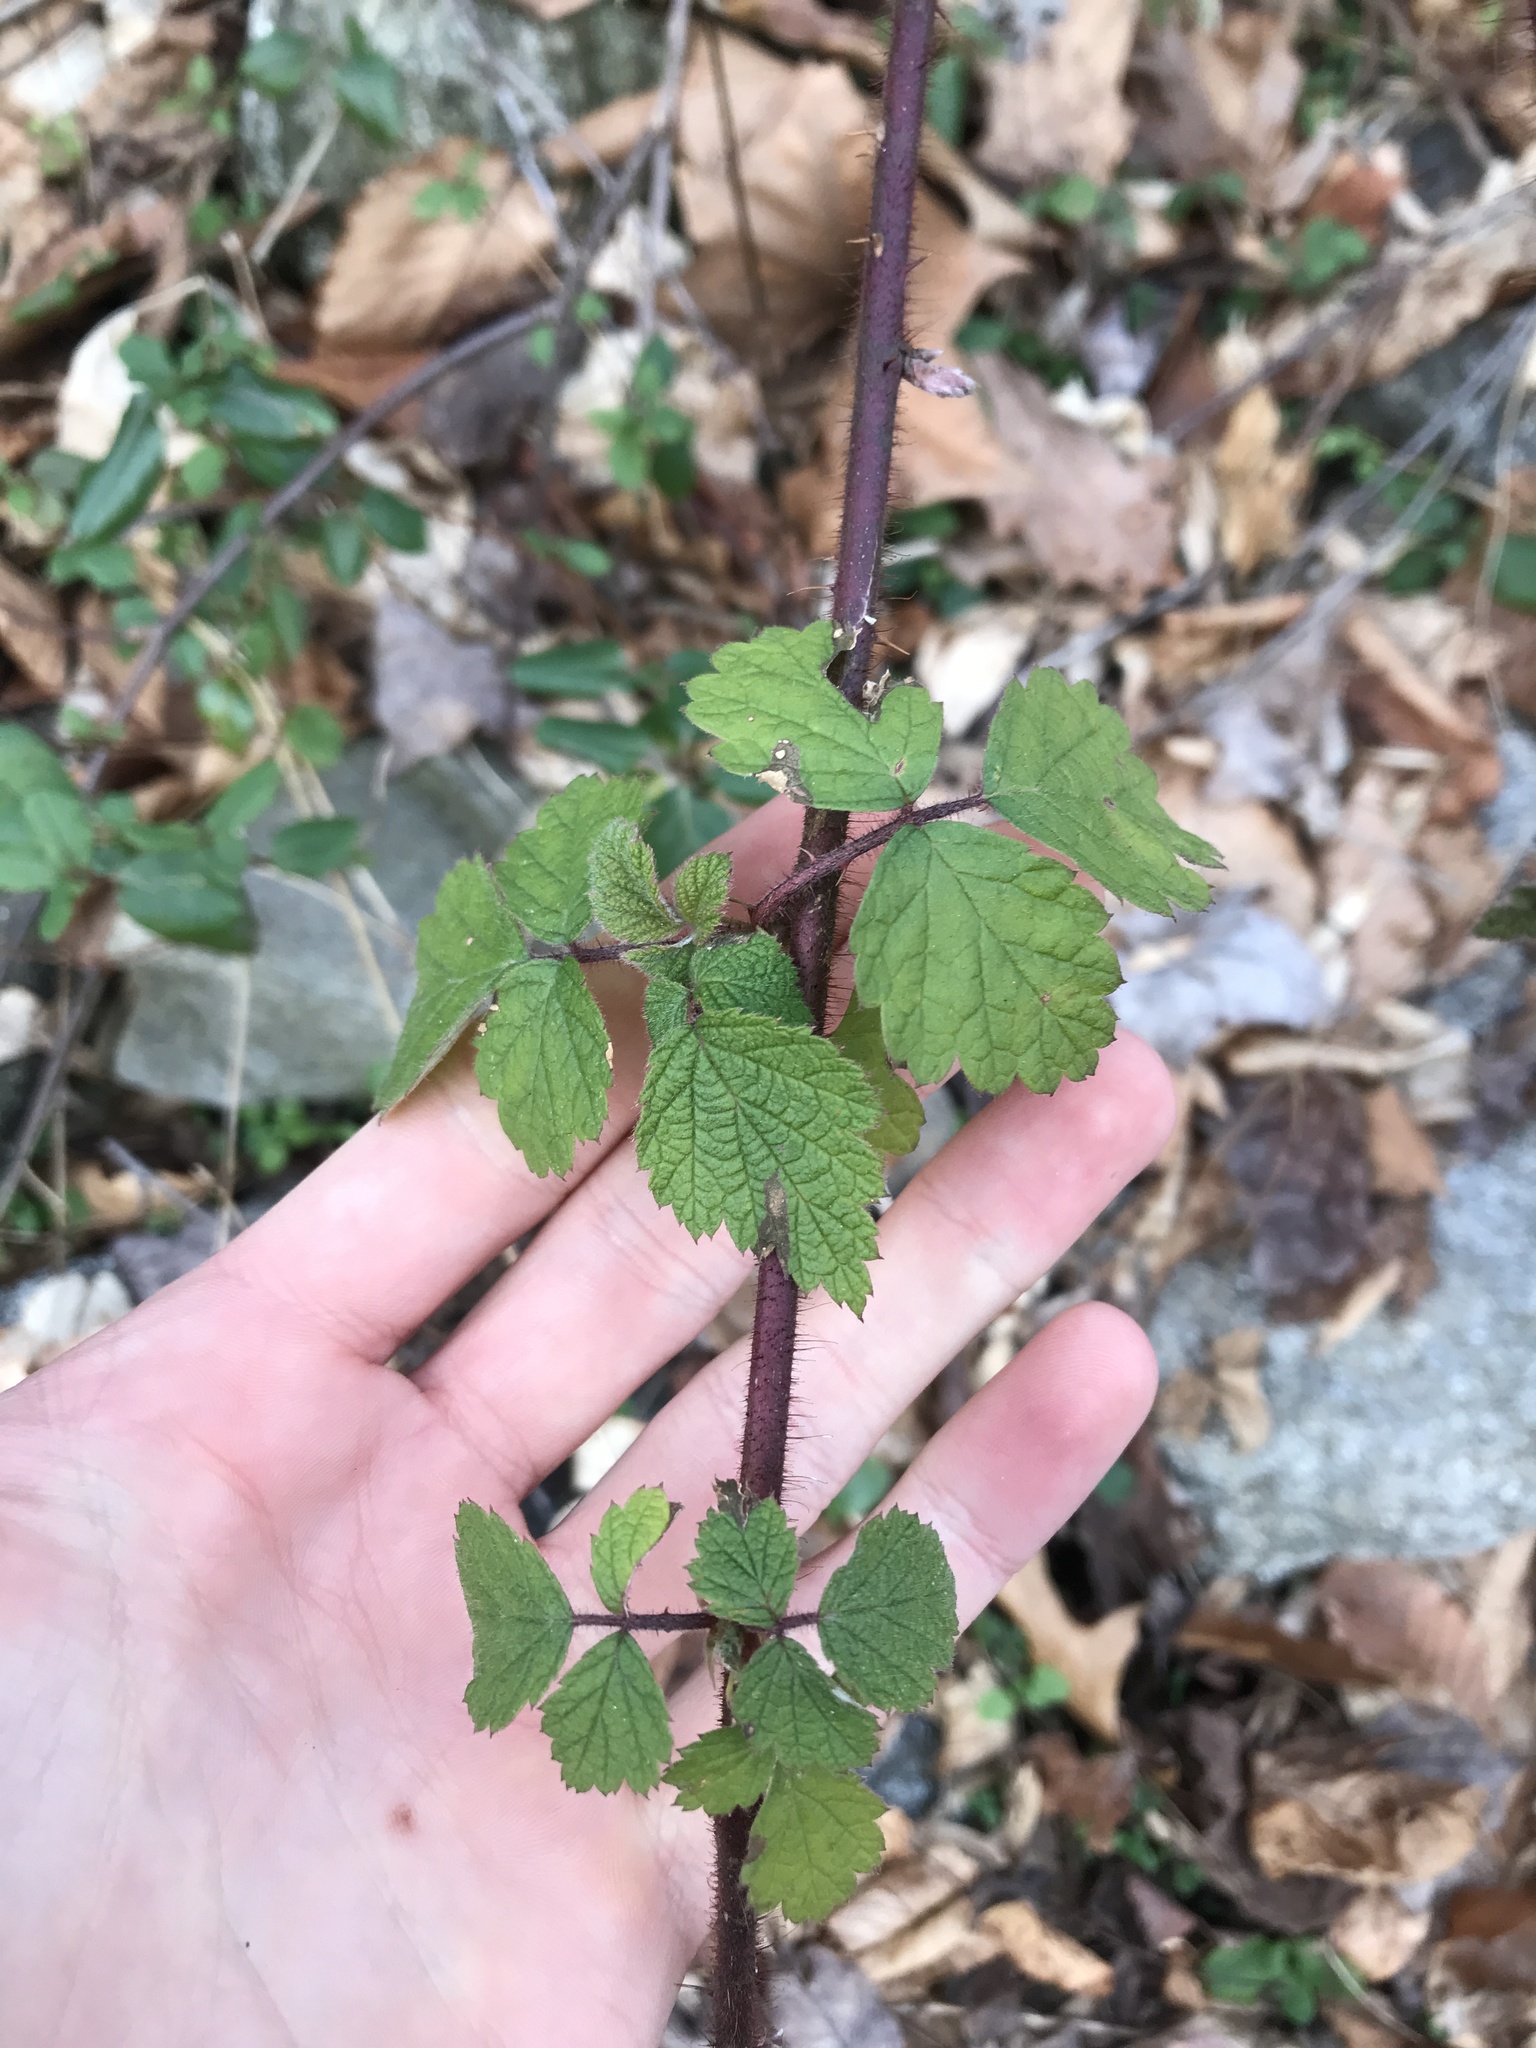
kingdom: Plantae
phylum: Tracheophyta
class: Magnoliopsida
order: Rosales
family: Rosaceae
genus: Rubus
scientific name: Rubus phoenicolasius
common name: Japanese wineberry
